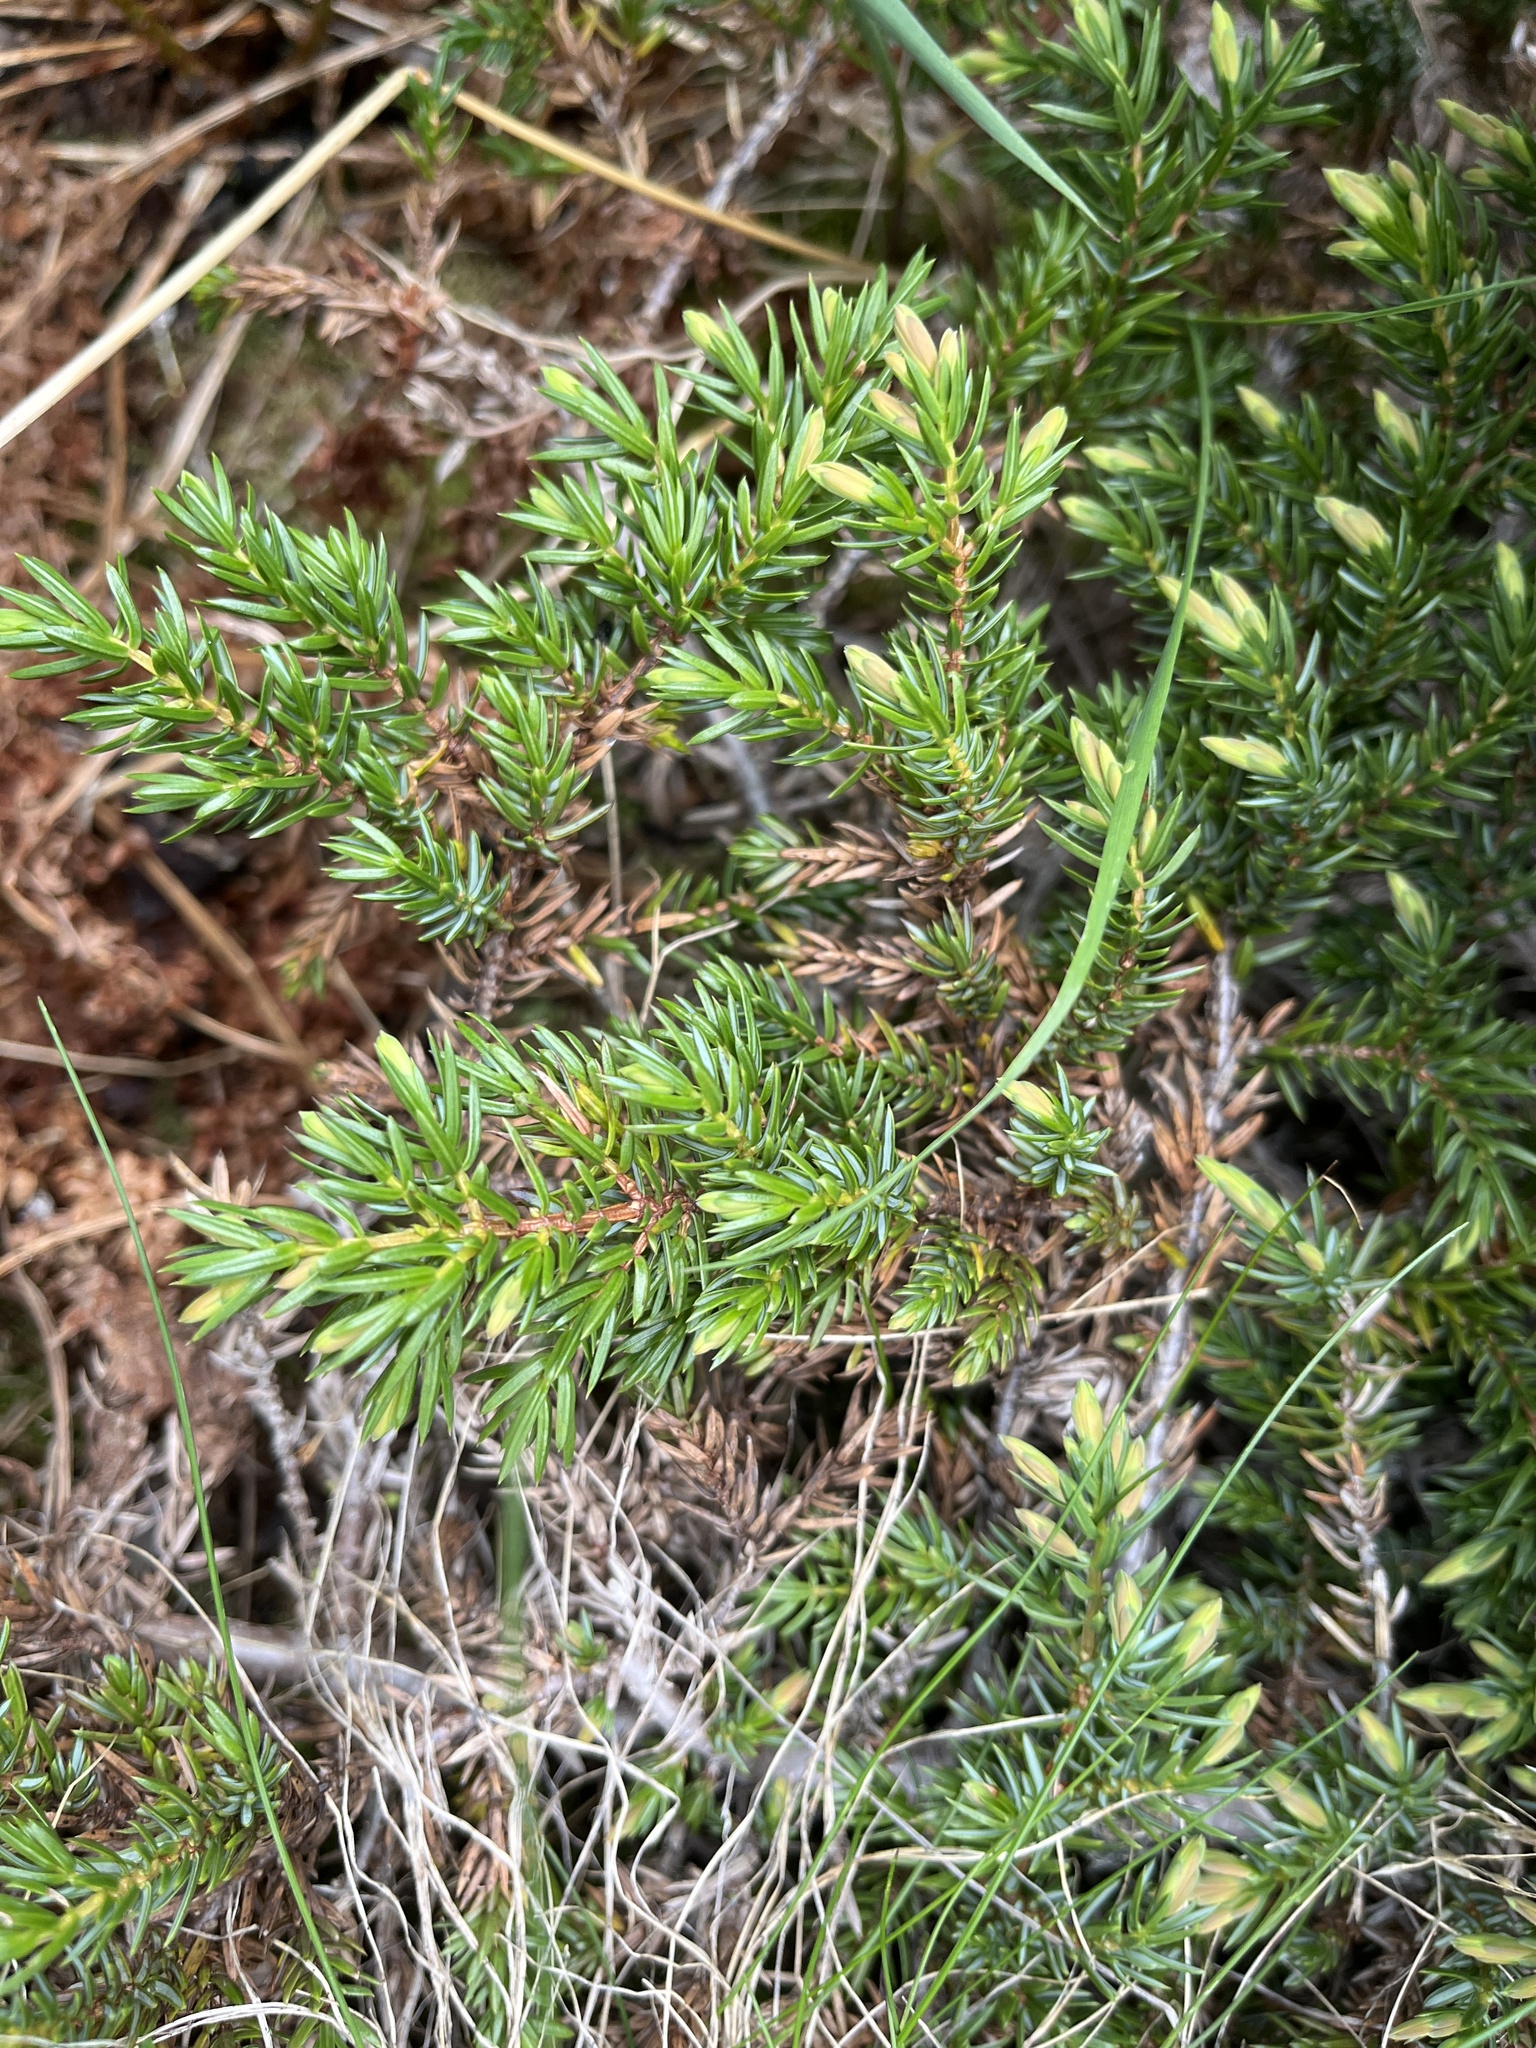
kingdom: Plantae
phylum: Tracheophyta
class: Pinopsida
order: Pinales
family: Cupressaceae
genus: Juniperus
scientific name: Juniperus communis
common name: Common juniper
